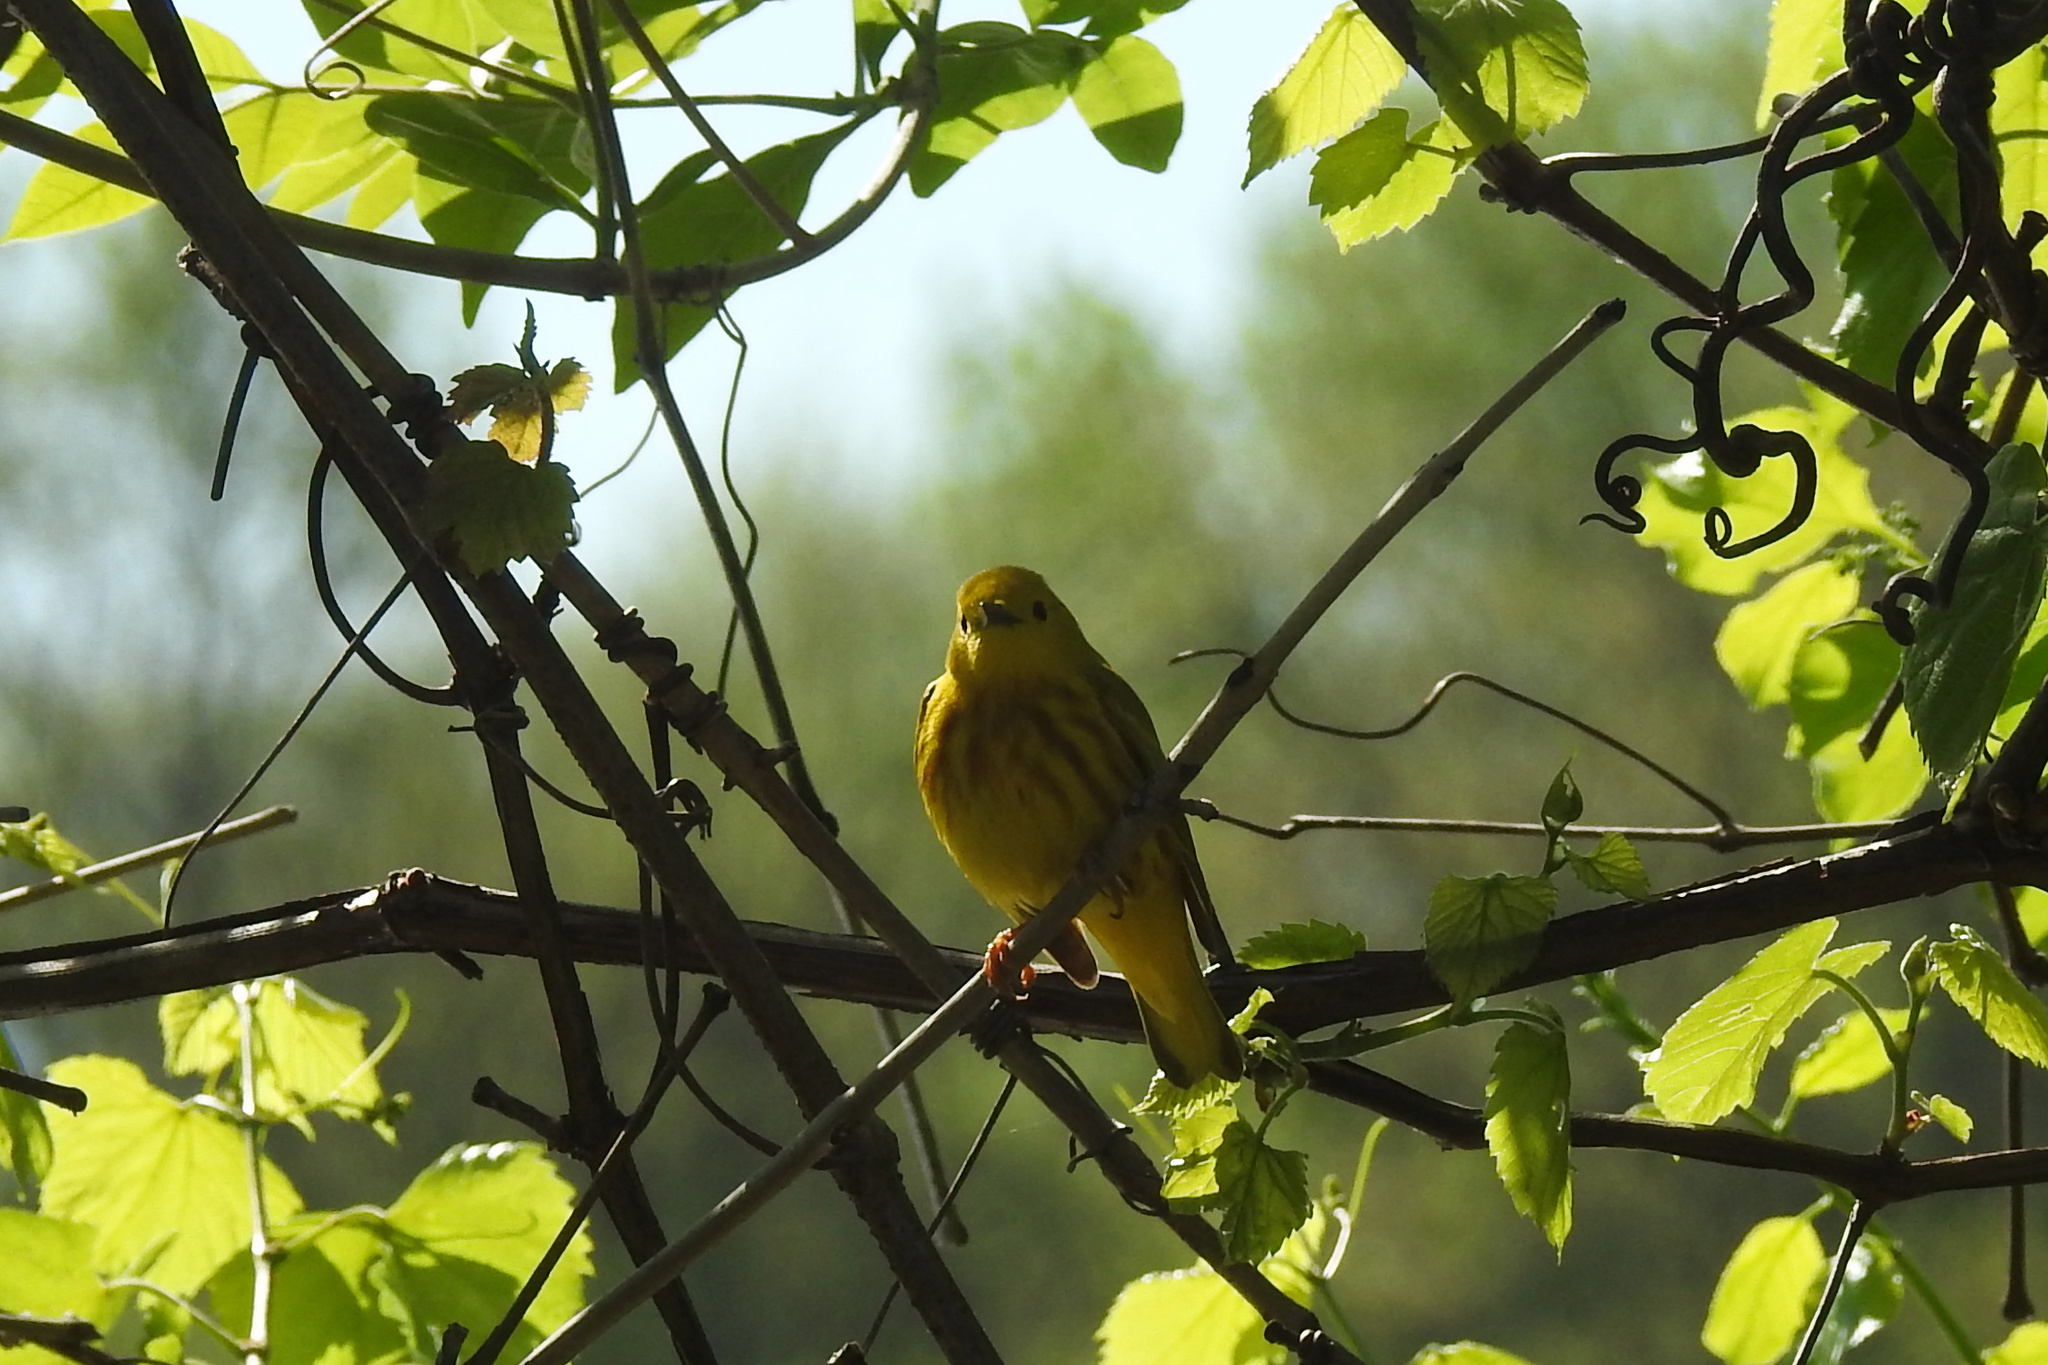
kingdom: Animalia
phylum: Chordata
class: Aves
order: Passeriformes
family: Parulidae
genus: Setophaga
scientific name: Setophaga petechia
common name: Yellow warbler
